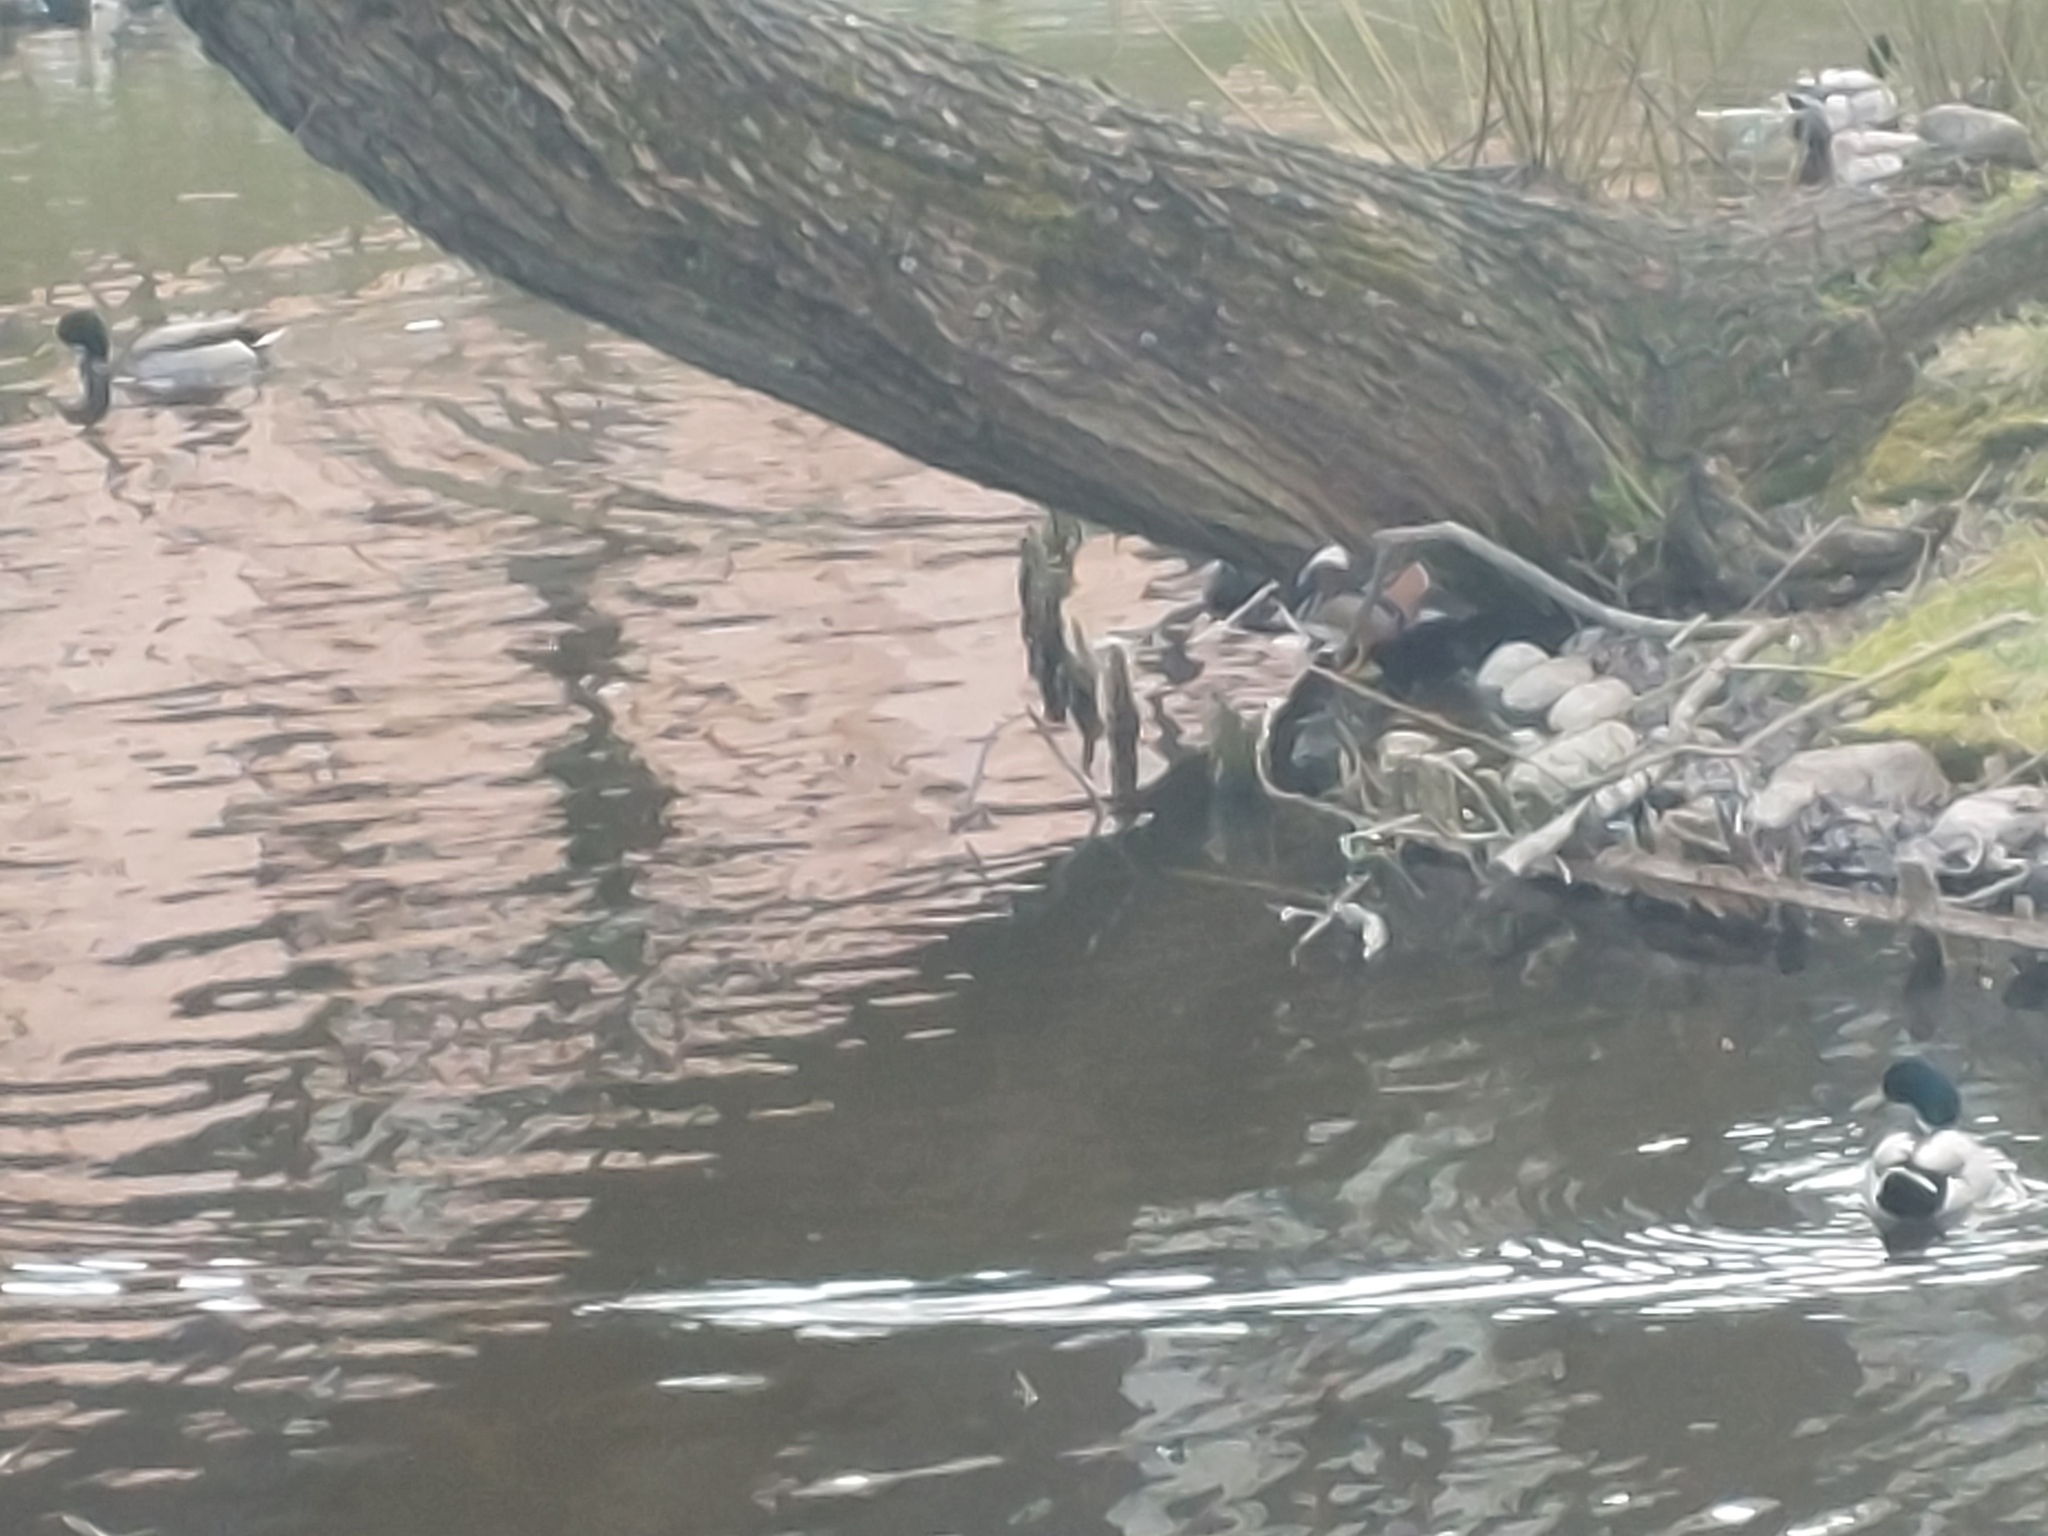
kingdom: Animalia
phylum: Chordata
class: Aves
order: Anseriformes
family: Anatidae
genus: Aix
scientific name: Aix galericulata
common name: Mandarin duck
